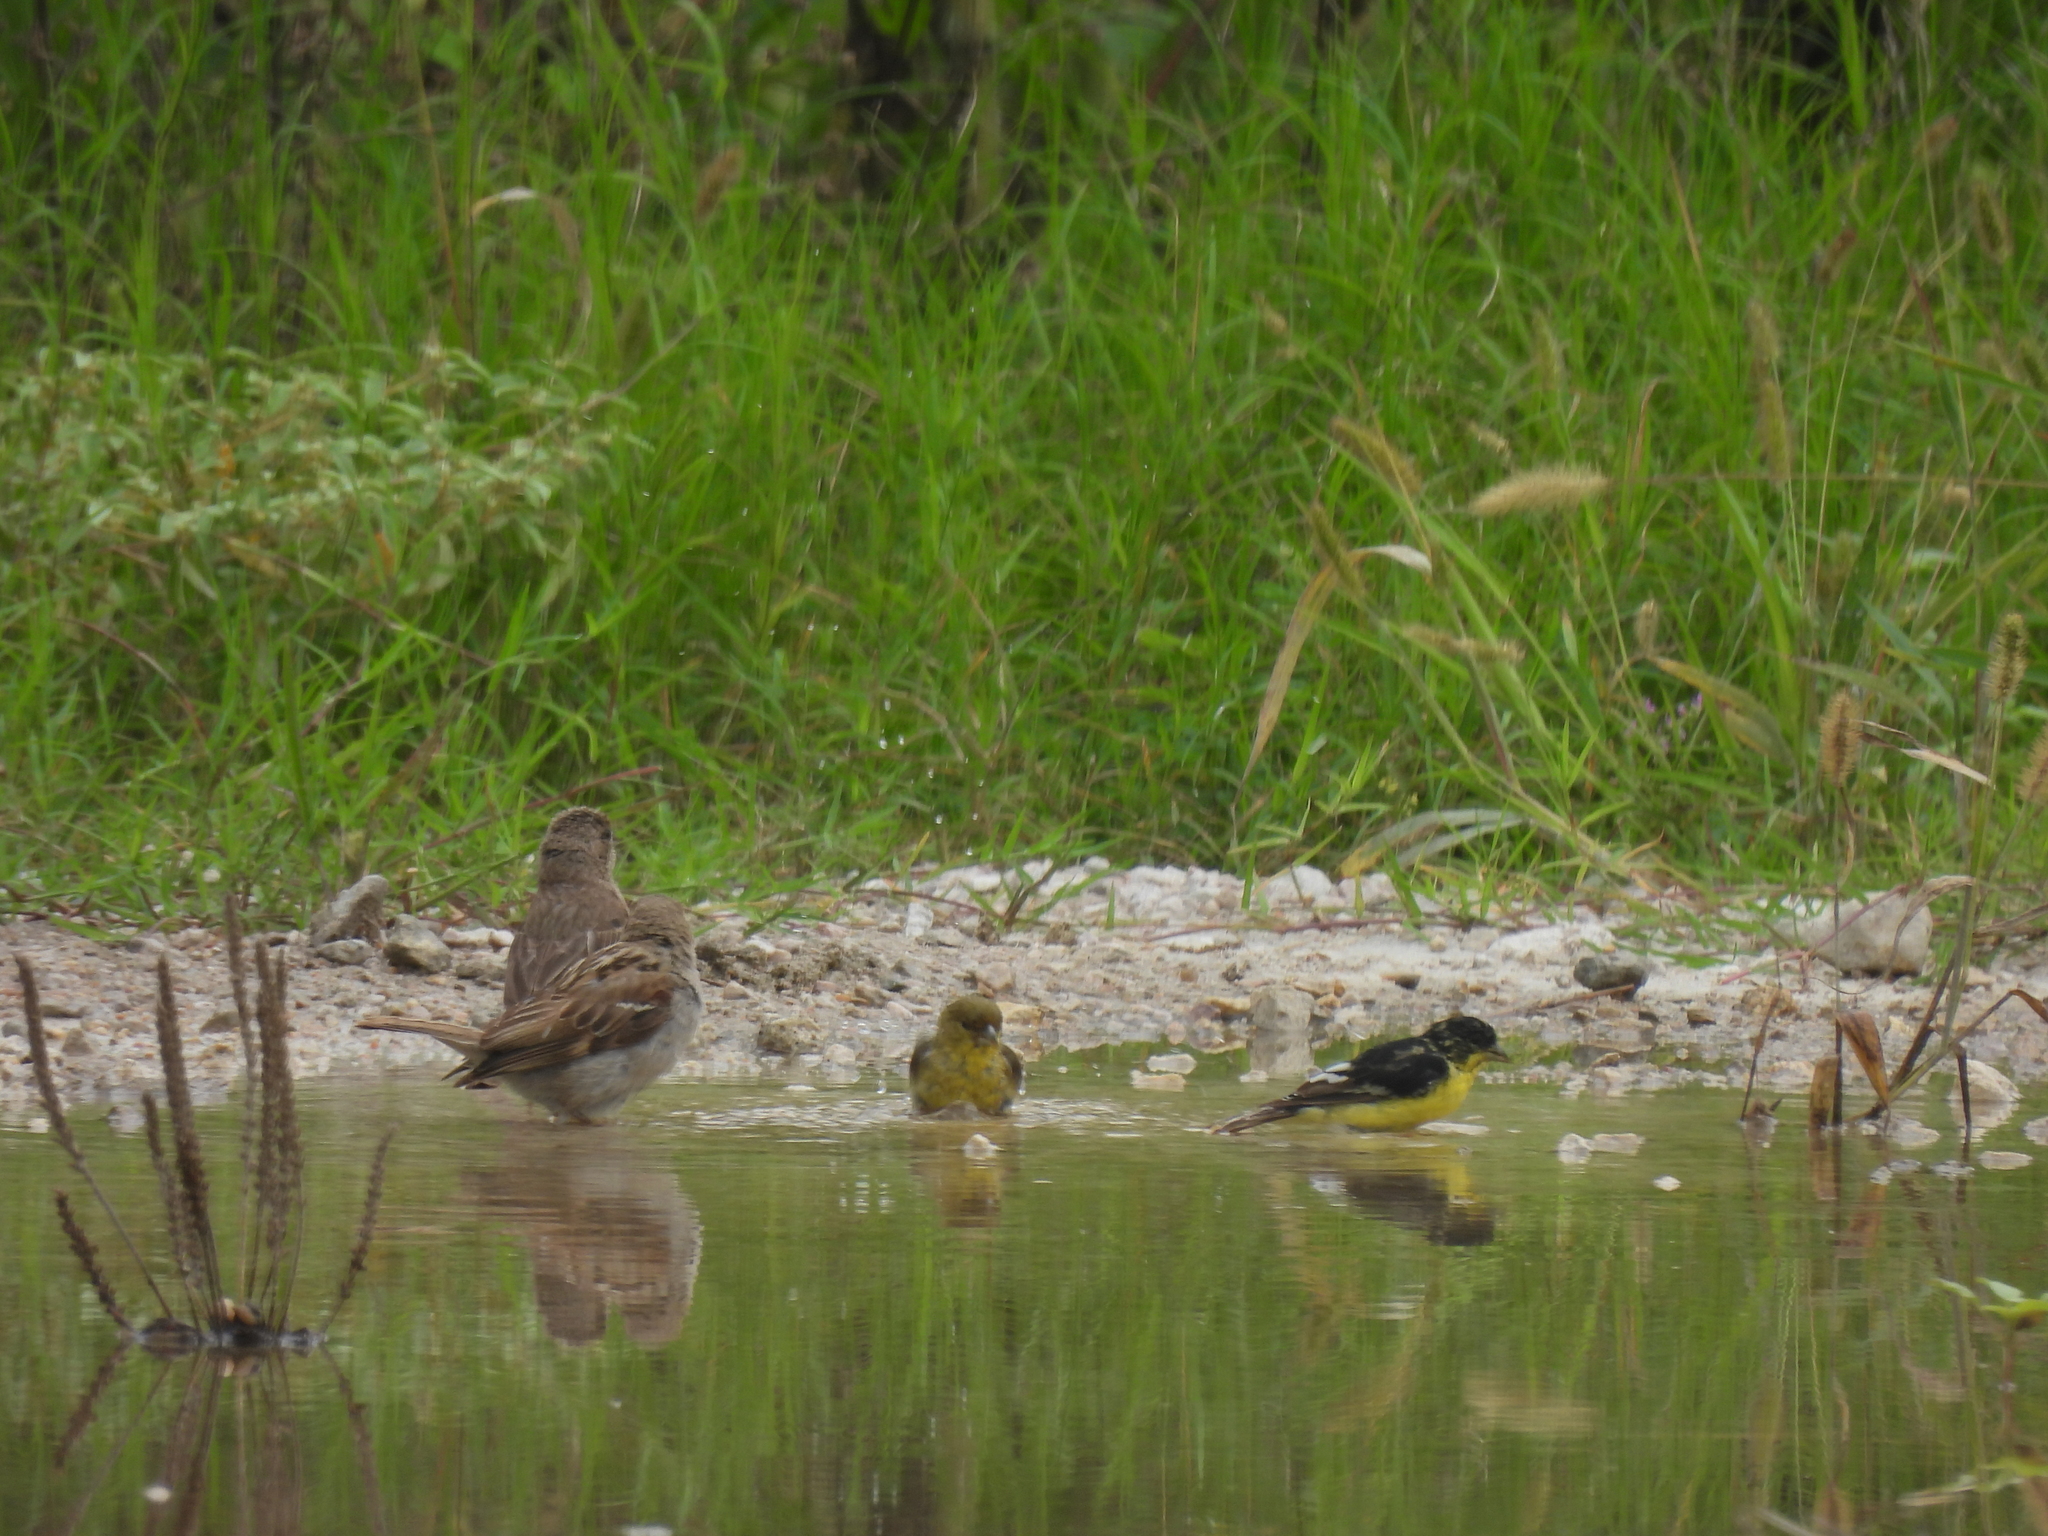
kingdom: Animalia
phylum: Chordata
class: Aves
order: Passeriformes
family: Passeridae
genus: Passer
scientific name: Passer domesticus
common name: House sparrow
